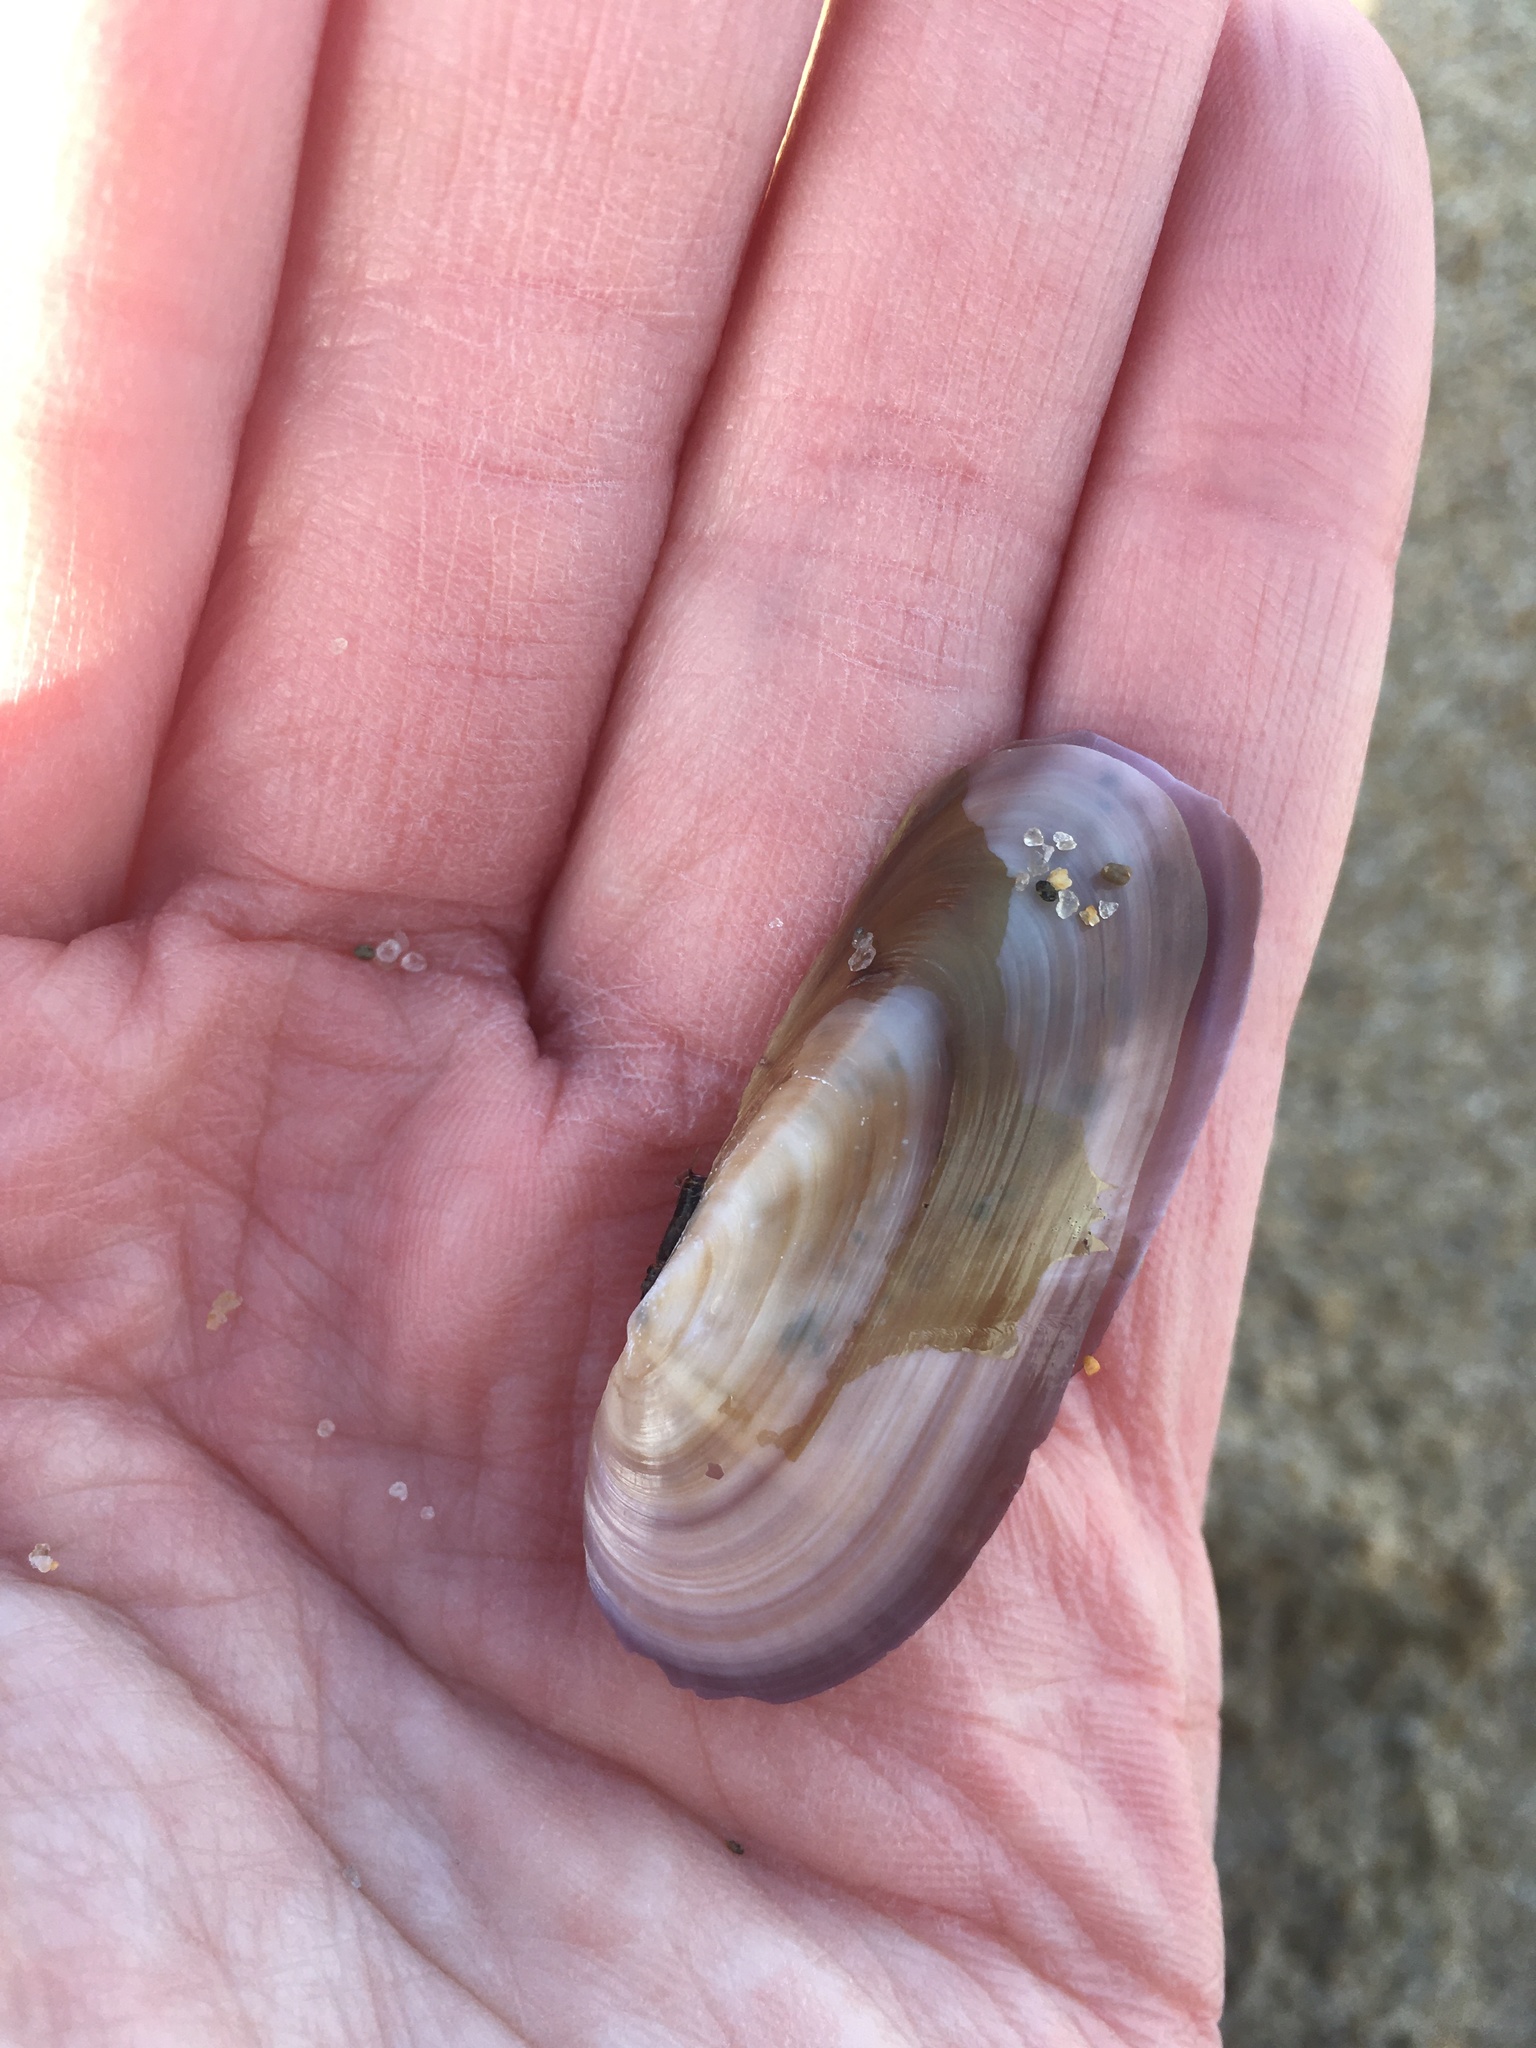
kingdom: Animalia
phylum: Mollusca
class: Bivalvia
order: Adapedonta
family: Pharidae
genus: Siliqua
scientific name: Siliqua costata
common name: Atlantic razor
